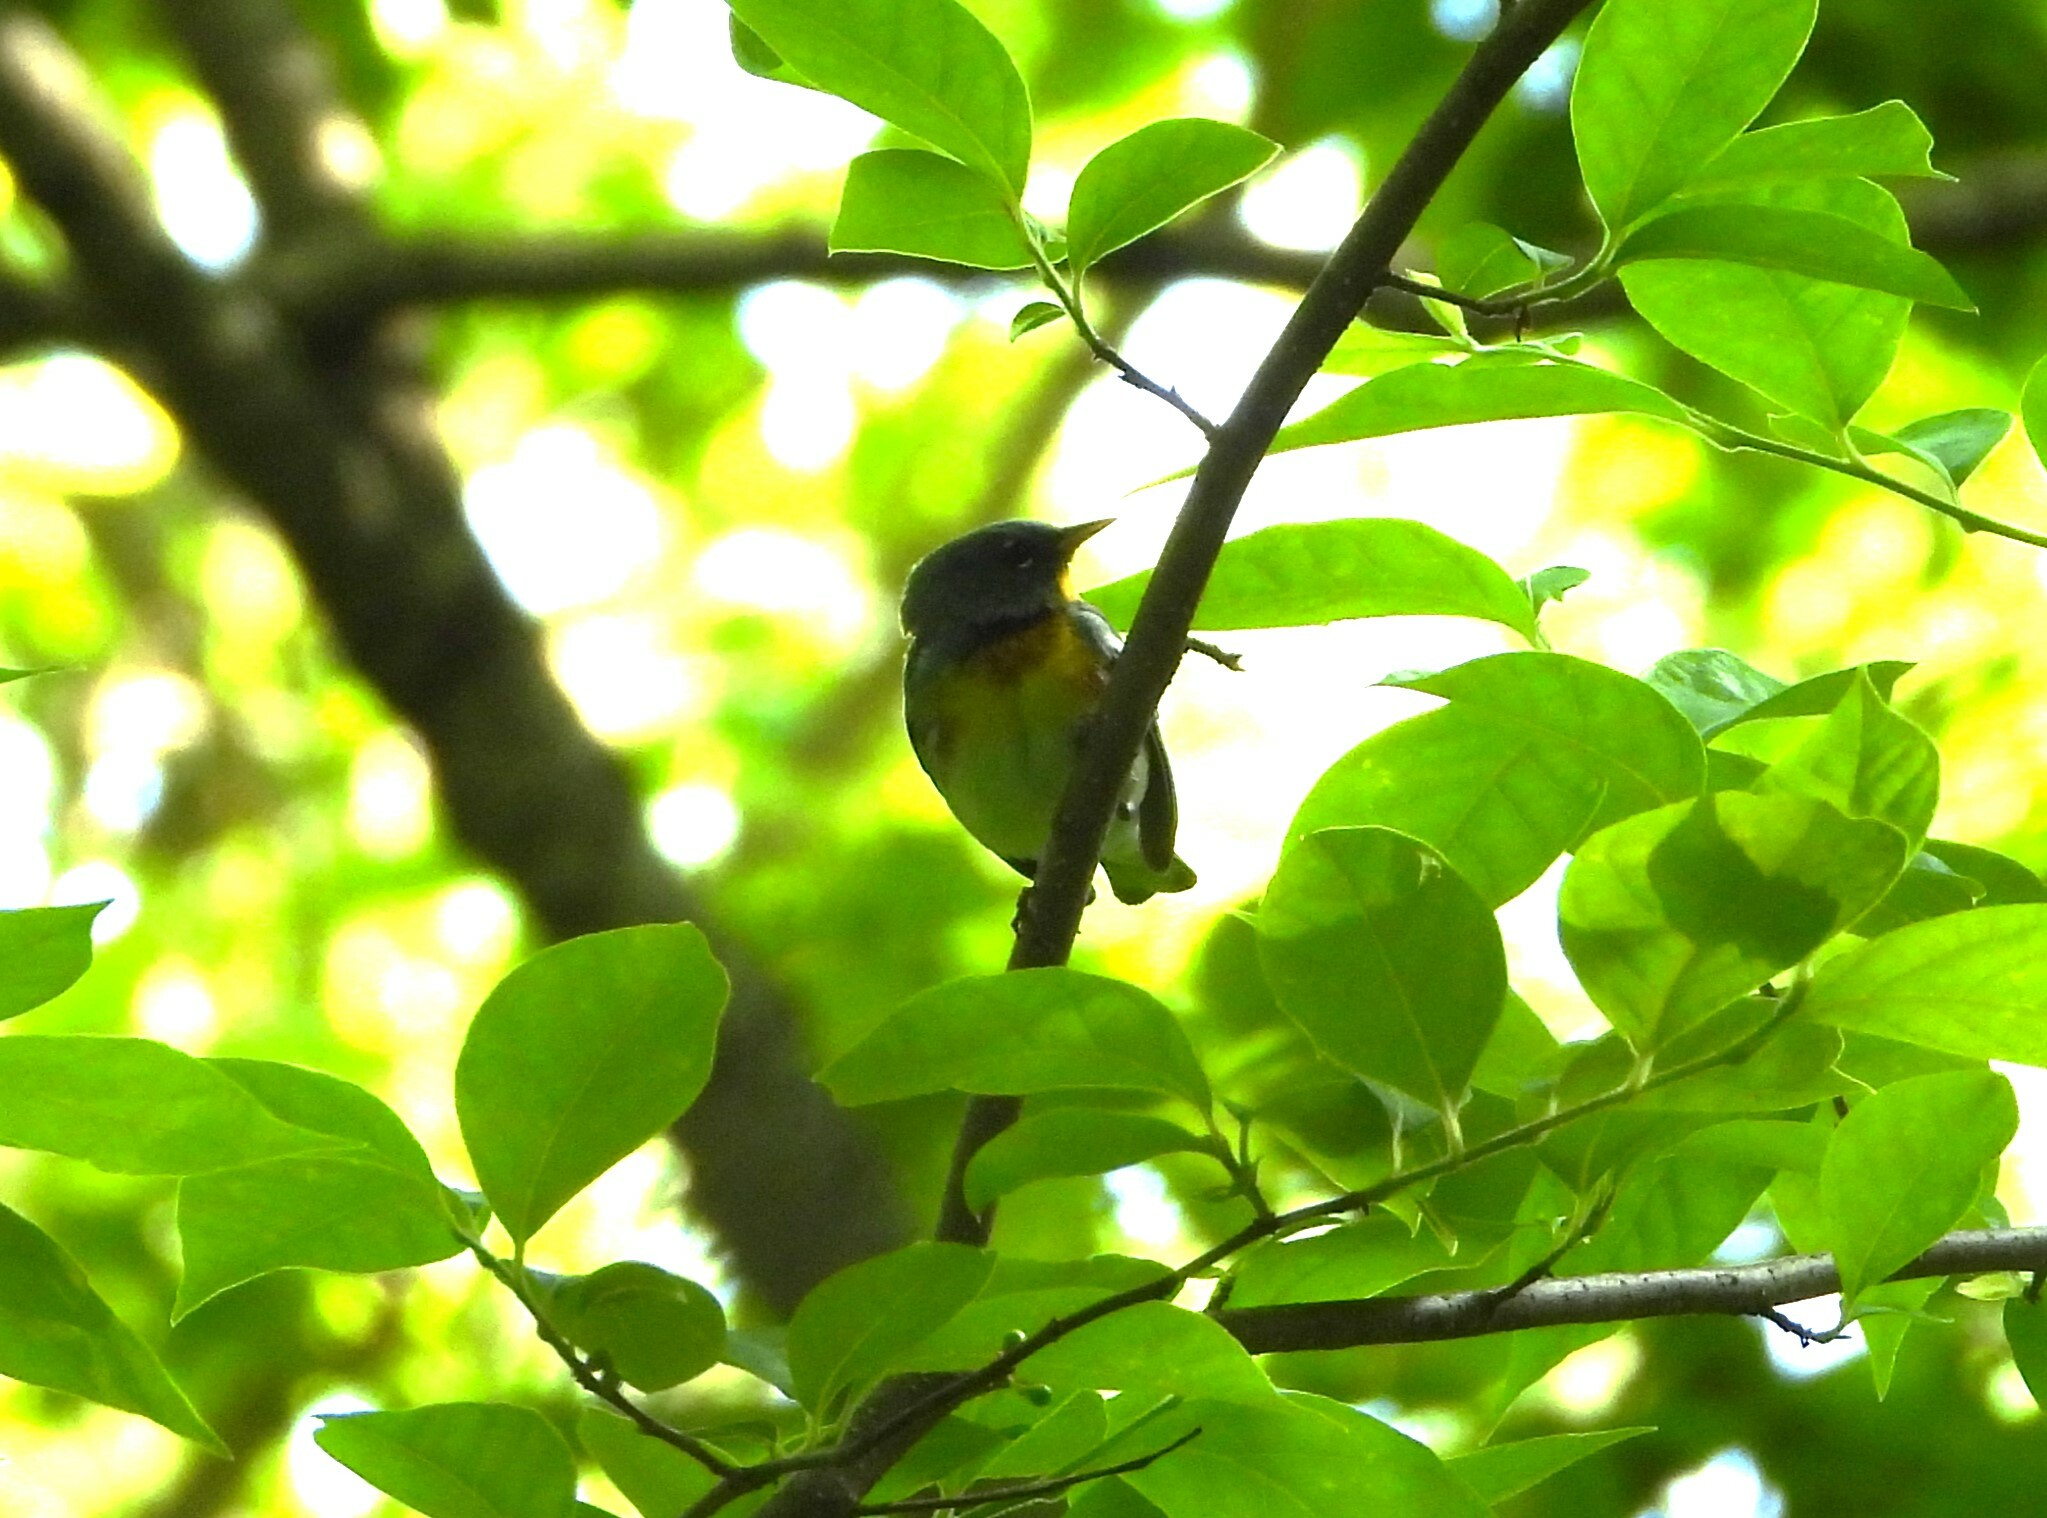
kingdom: Animalia
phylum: Chordata
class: Aves
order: Passeriformes
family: Parulidae
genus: Setophaga
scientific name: Setophaga americana
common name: Northern parula
